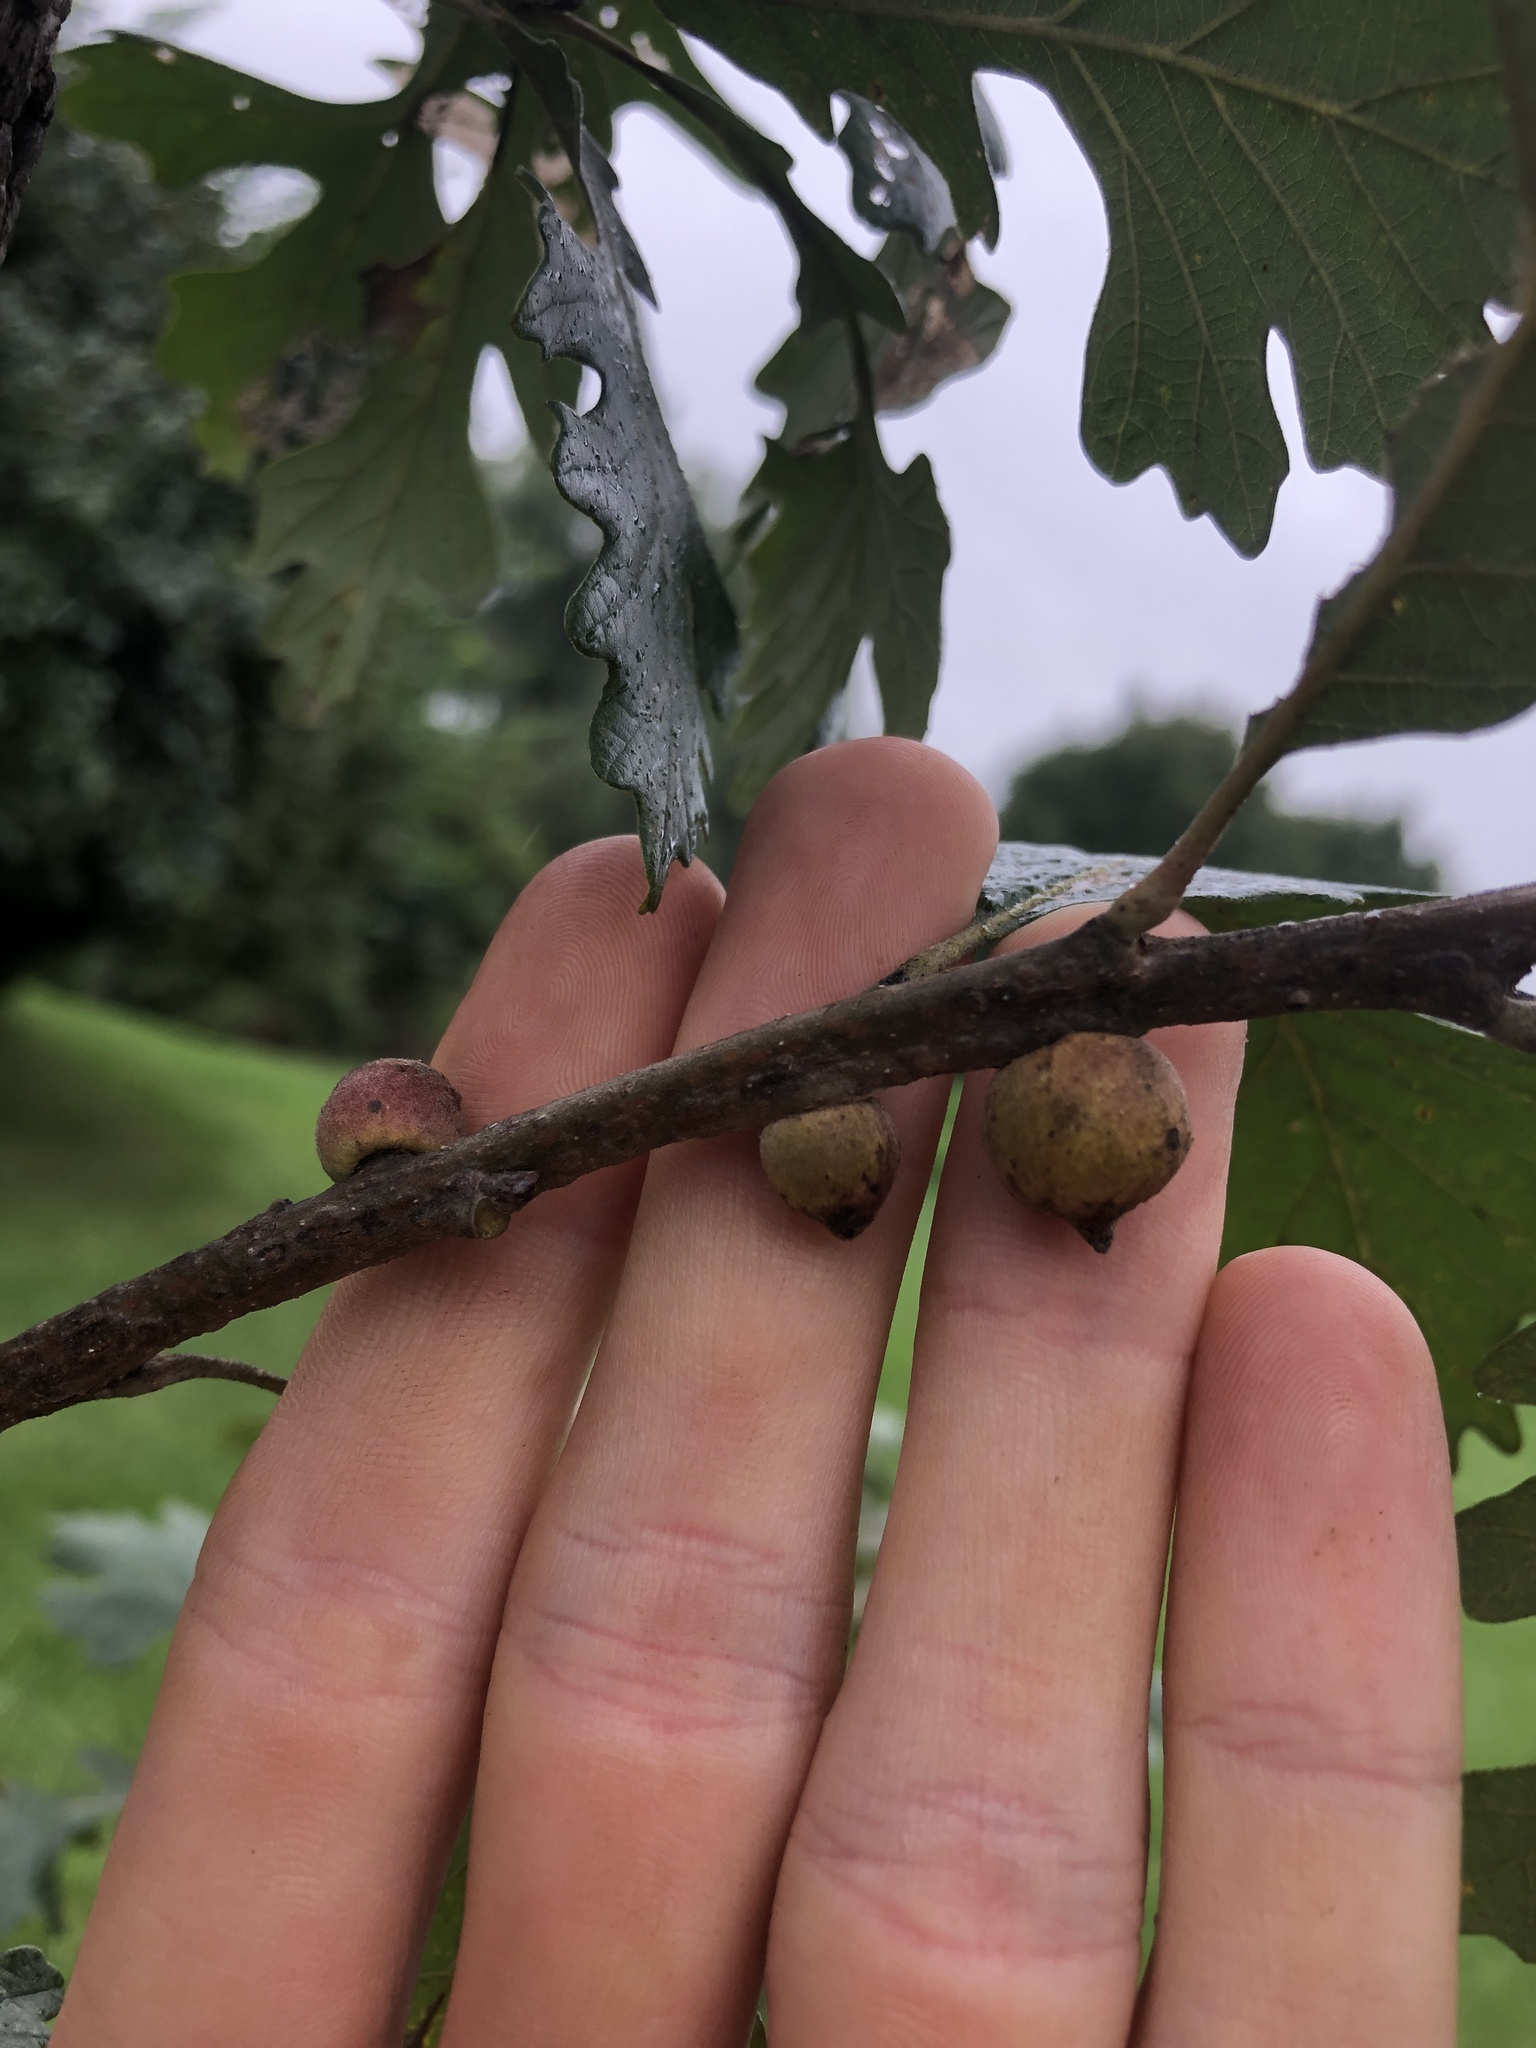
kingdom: Animalia
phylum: Arthropoda
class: Insecta
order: Hymenoptera
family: Cynipidae
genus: Disholcaspis
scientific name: Disholcaspis
